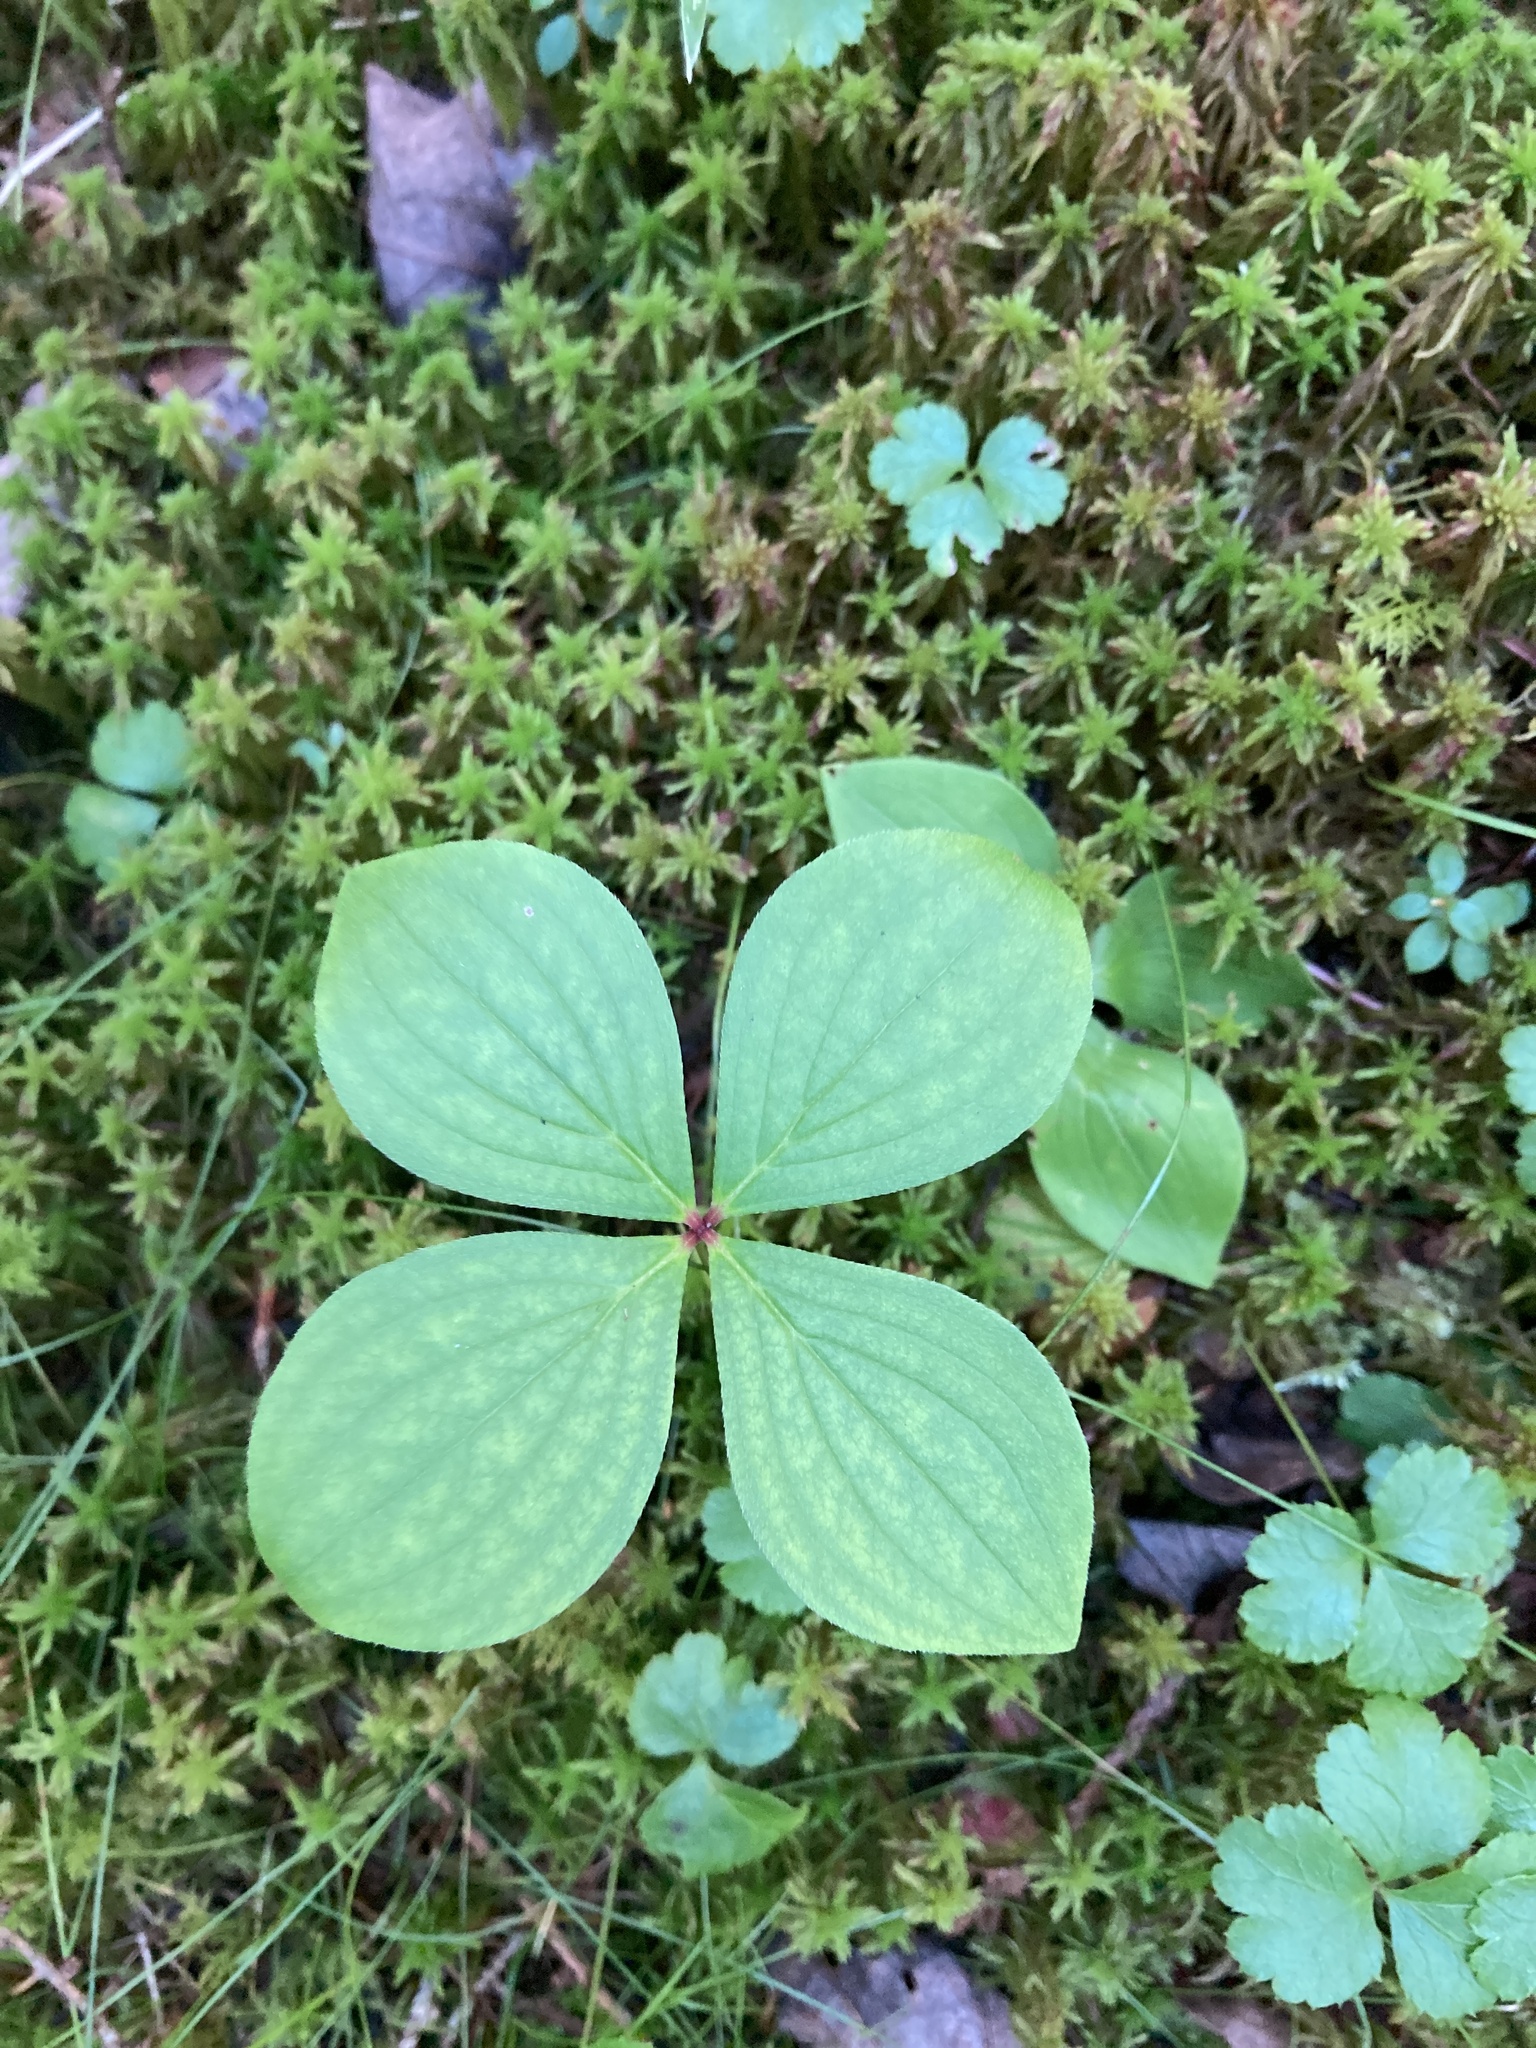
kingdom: Plantae
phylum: Tracheophyta
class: Magnoliopsida
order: Cornales
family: Cornaceae
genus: Cornus
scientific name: Cornus canadensis
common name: Creeping dogwood
